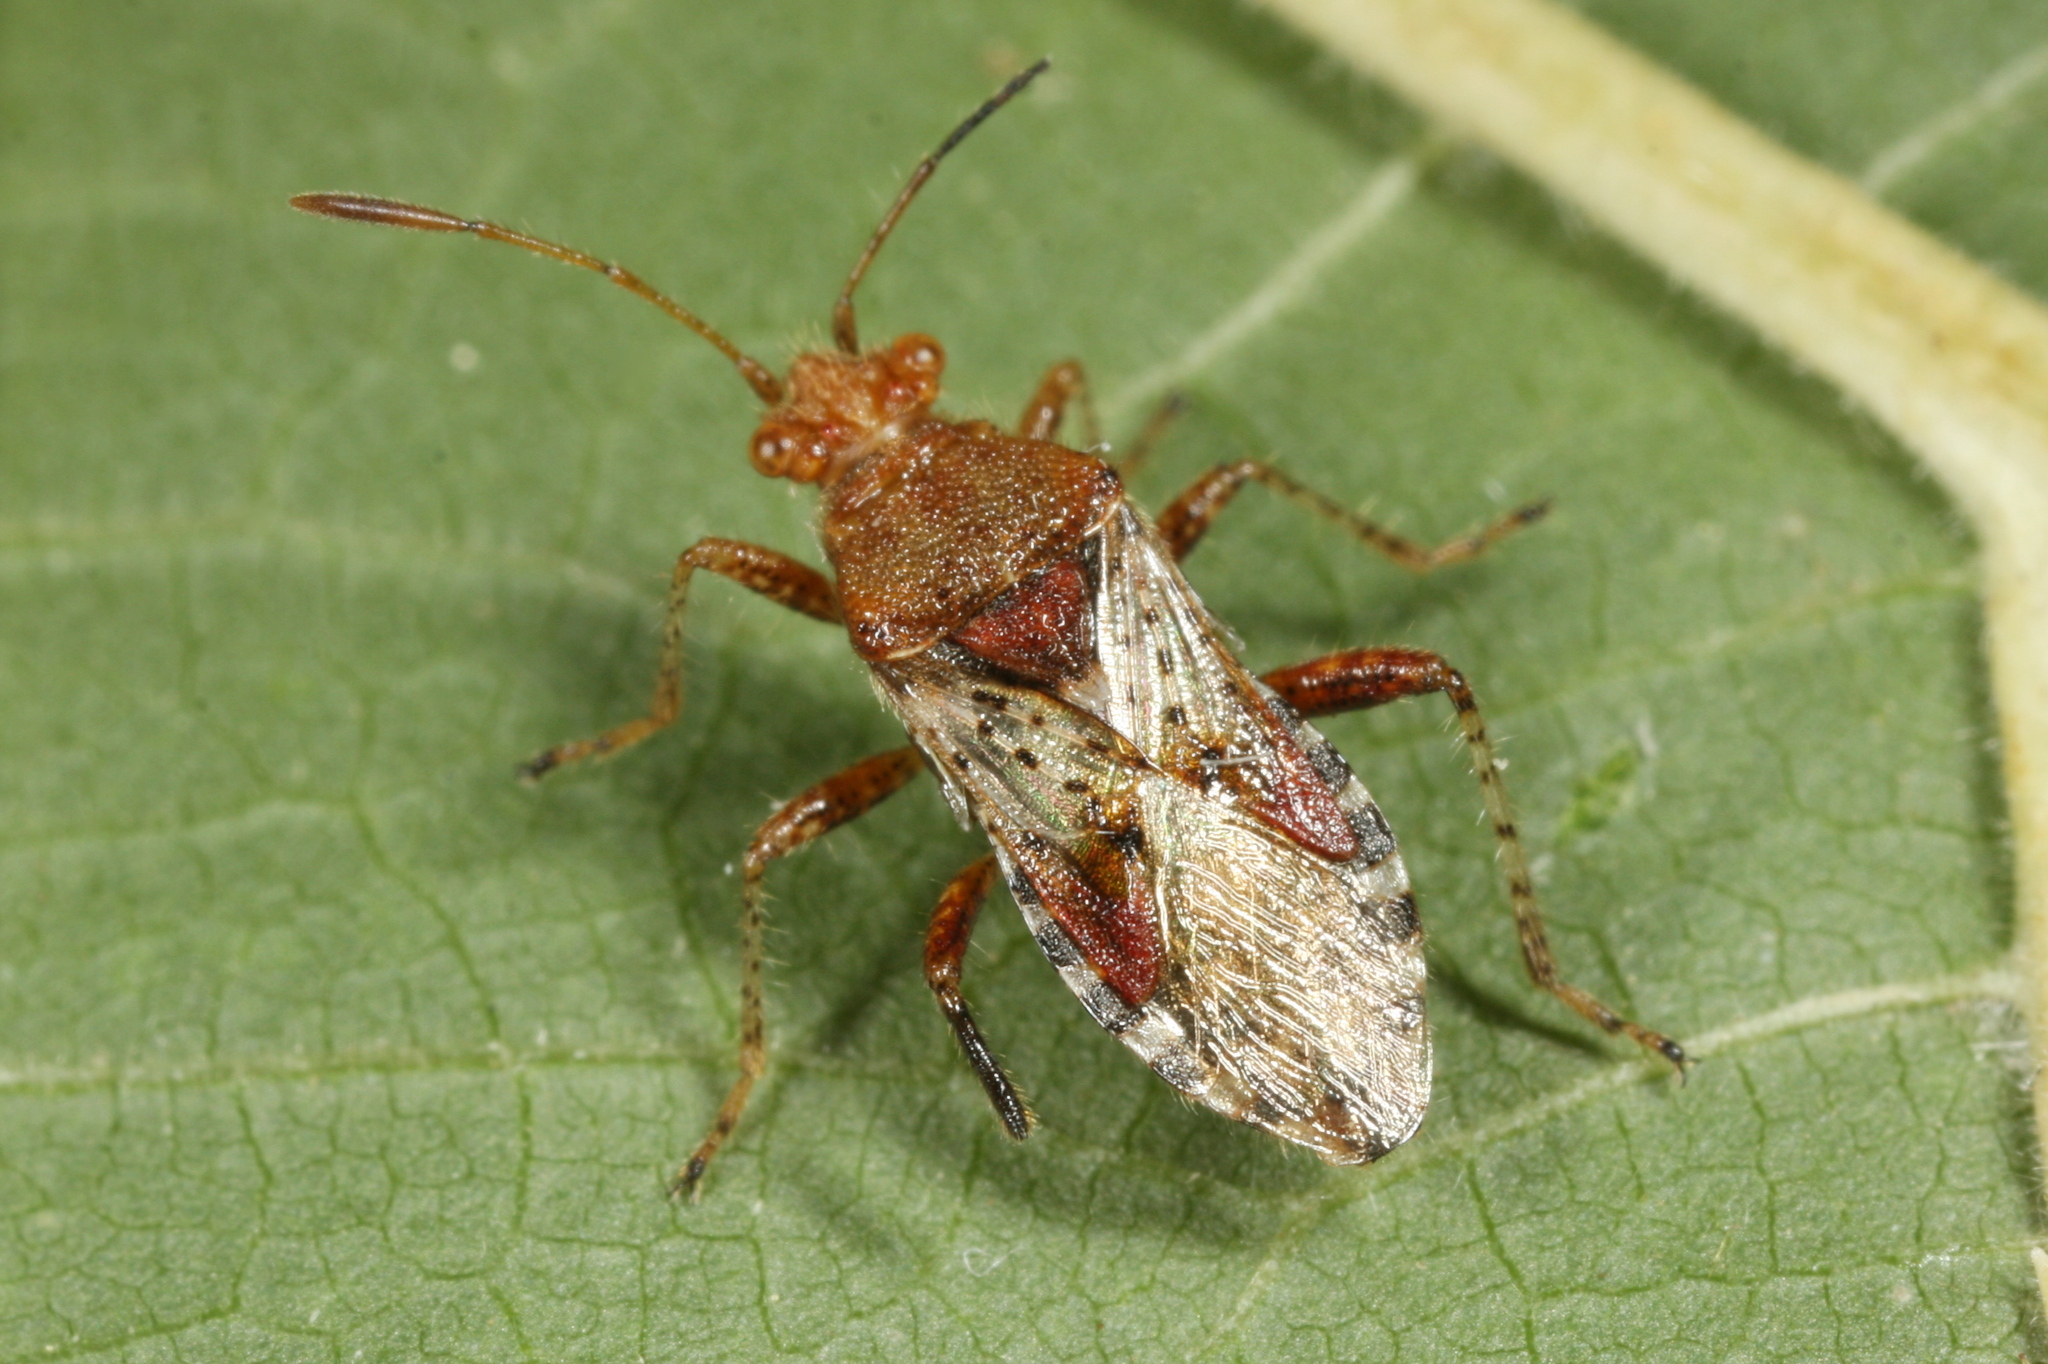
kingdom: Animalia
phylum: Arthropoda
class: Insecta
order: Hemiptera
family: Rhopalidae
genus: Rhopalus
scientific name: Rhopalus subrufus
